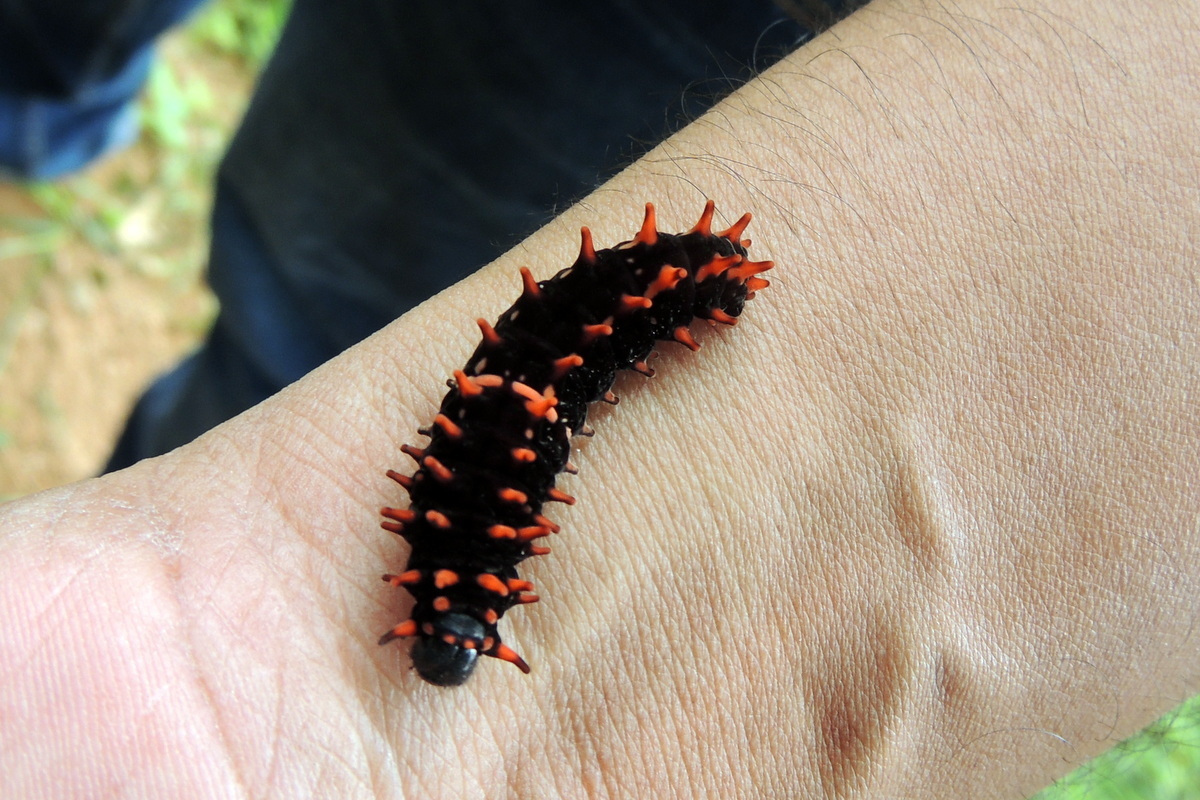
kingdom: Animalia
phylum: Arthropoda
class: Insecta
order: Lepidoptera
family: Papilionidae
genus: Pachliopta
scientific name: Pachliopta hector
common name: Crimson rose
